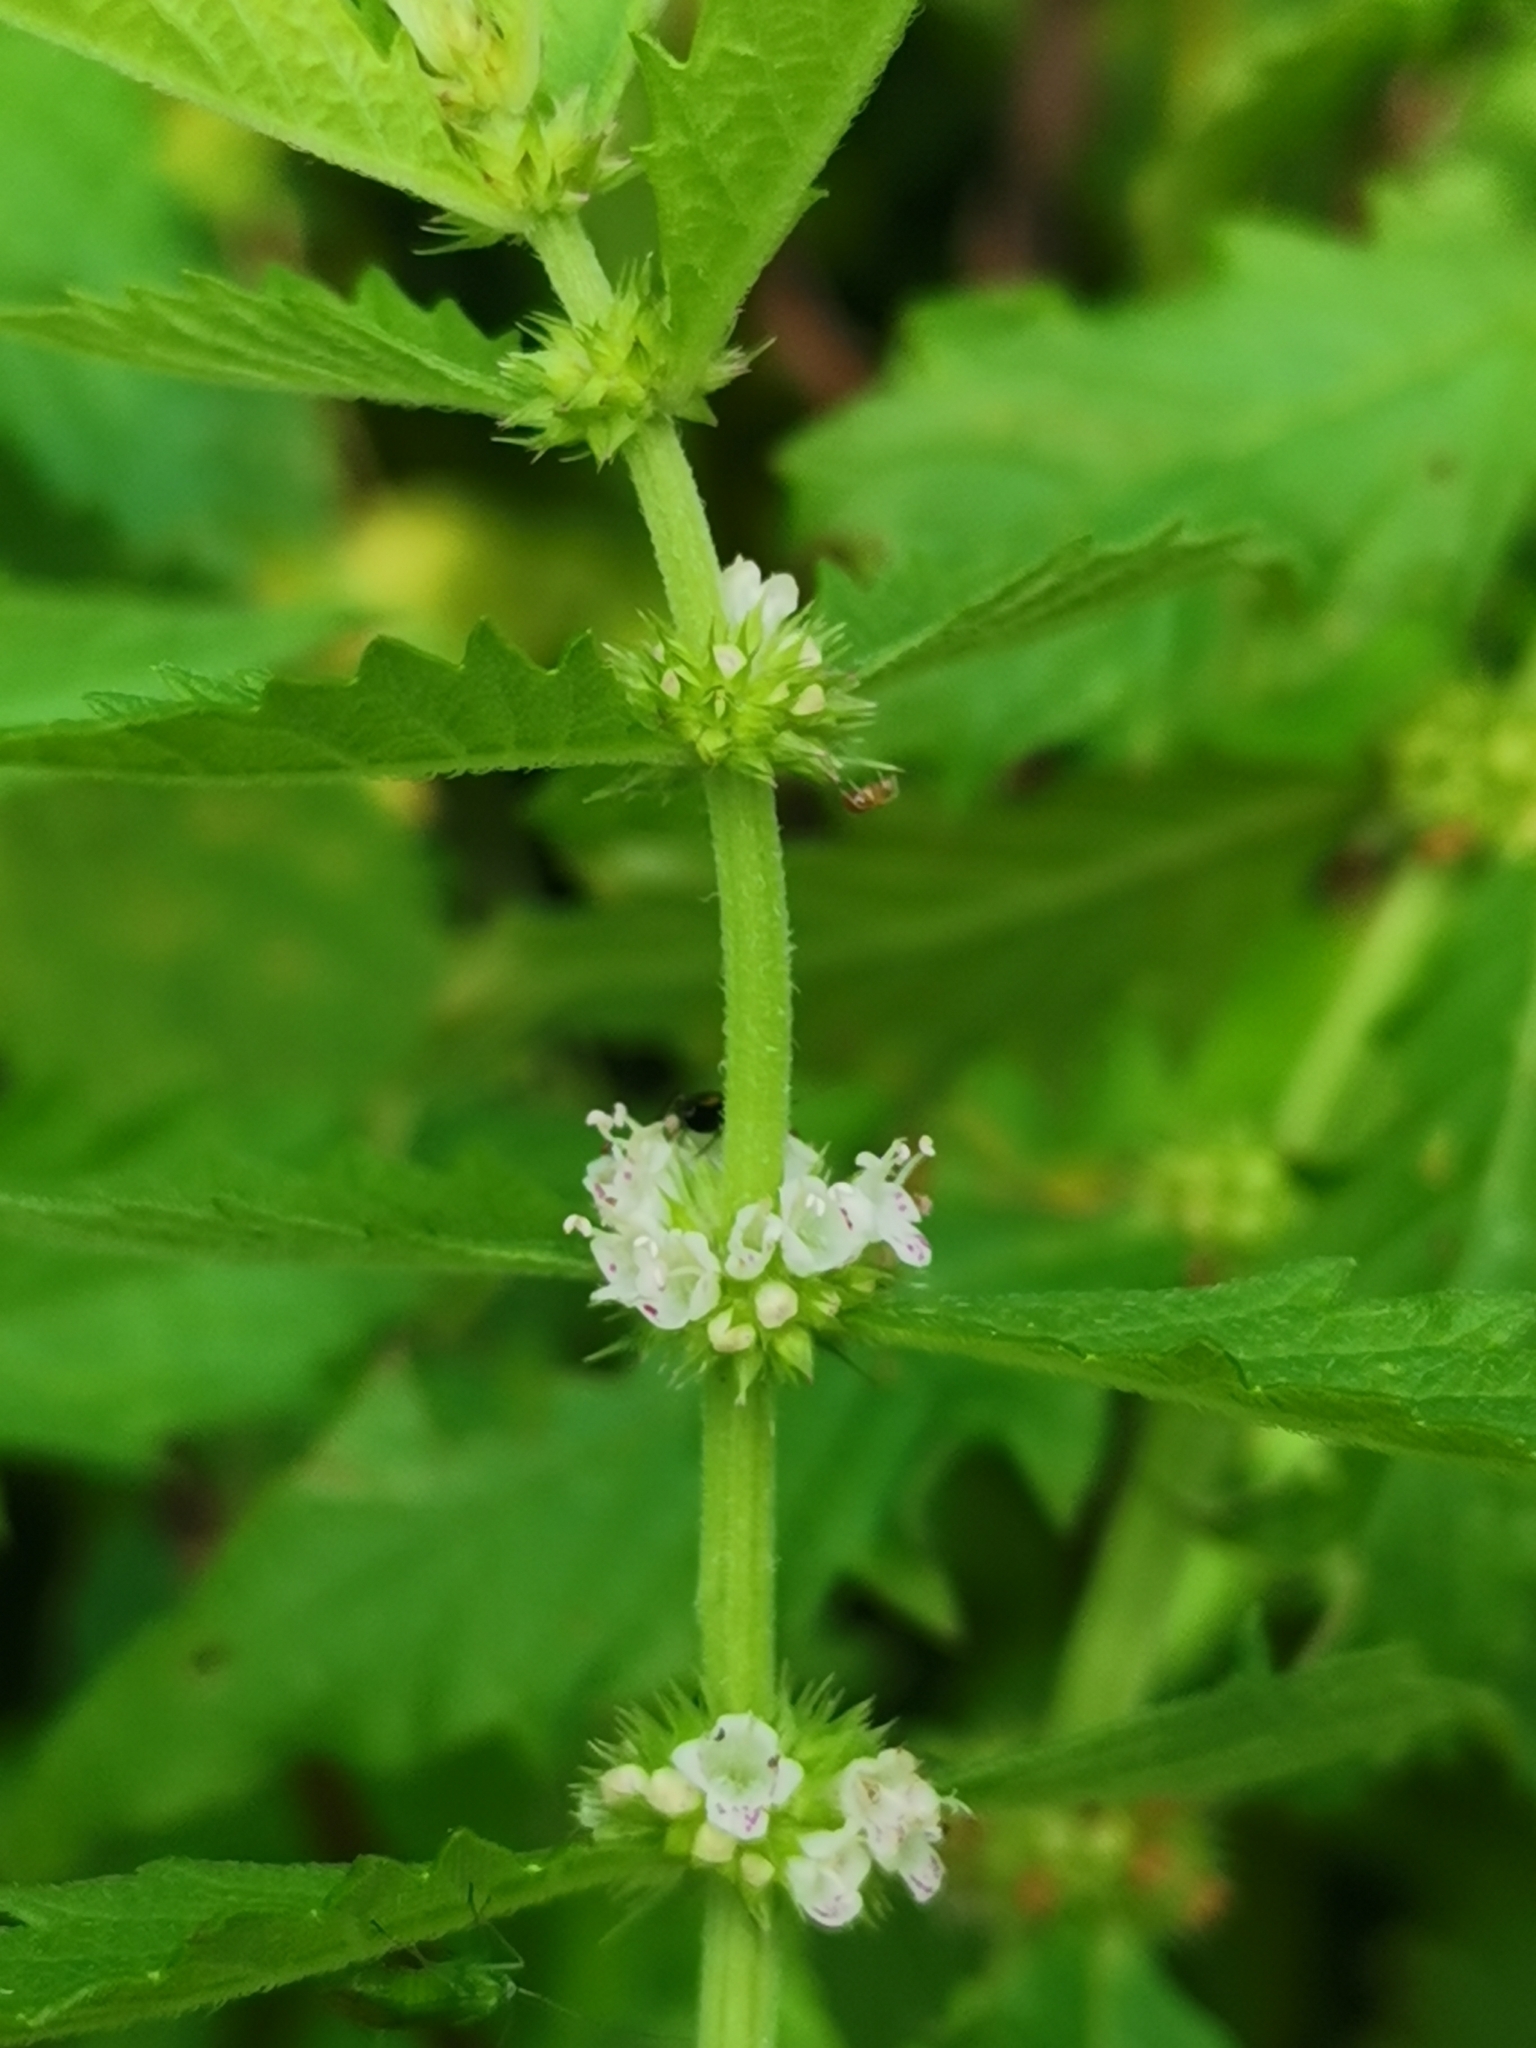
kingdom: Plantae
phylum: Tracheophyta
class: Magnoliopsida
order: Lamiales
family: Lamiaceae
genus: Lycopus
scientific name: Lycopus europaeus
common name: European bugleweed
